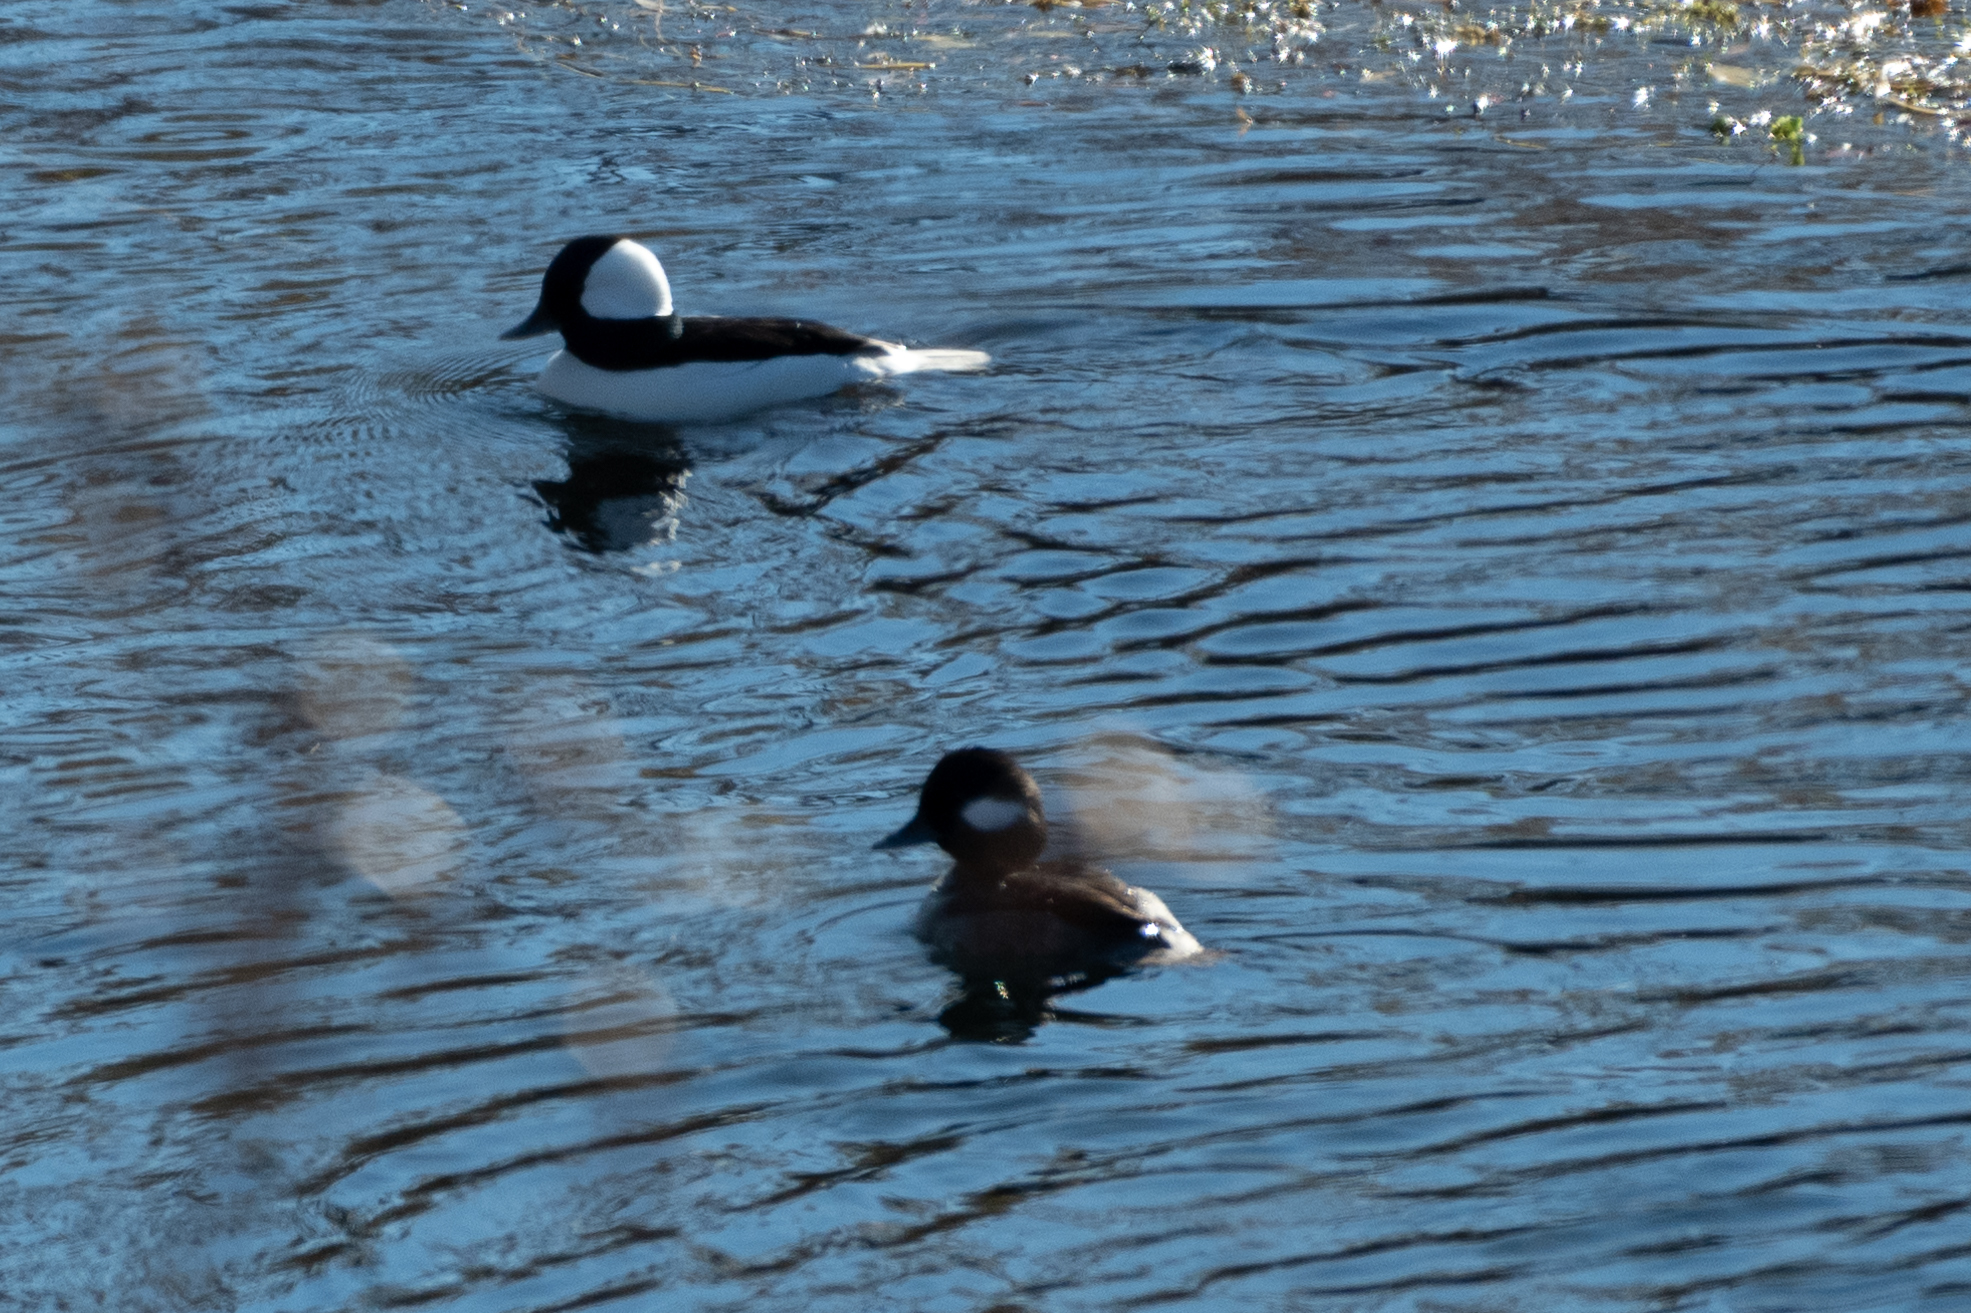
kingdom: Animalia
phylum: Chordata
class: Aves
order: Anseriformes
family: Anatidae
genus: Bucephala
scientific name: Bucephala albeola
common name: Bufflehead
